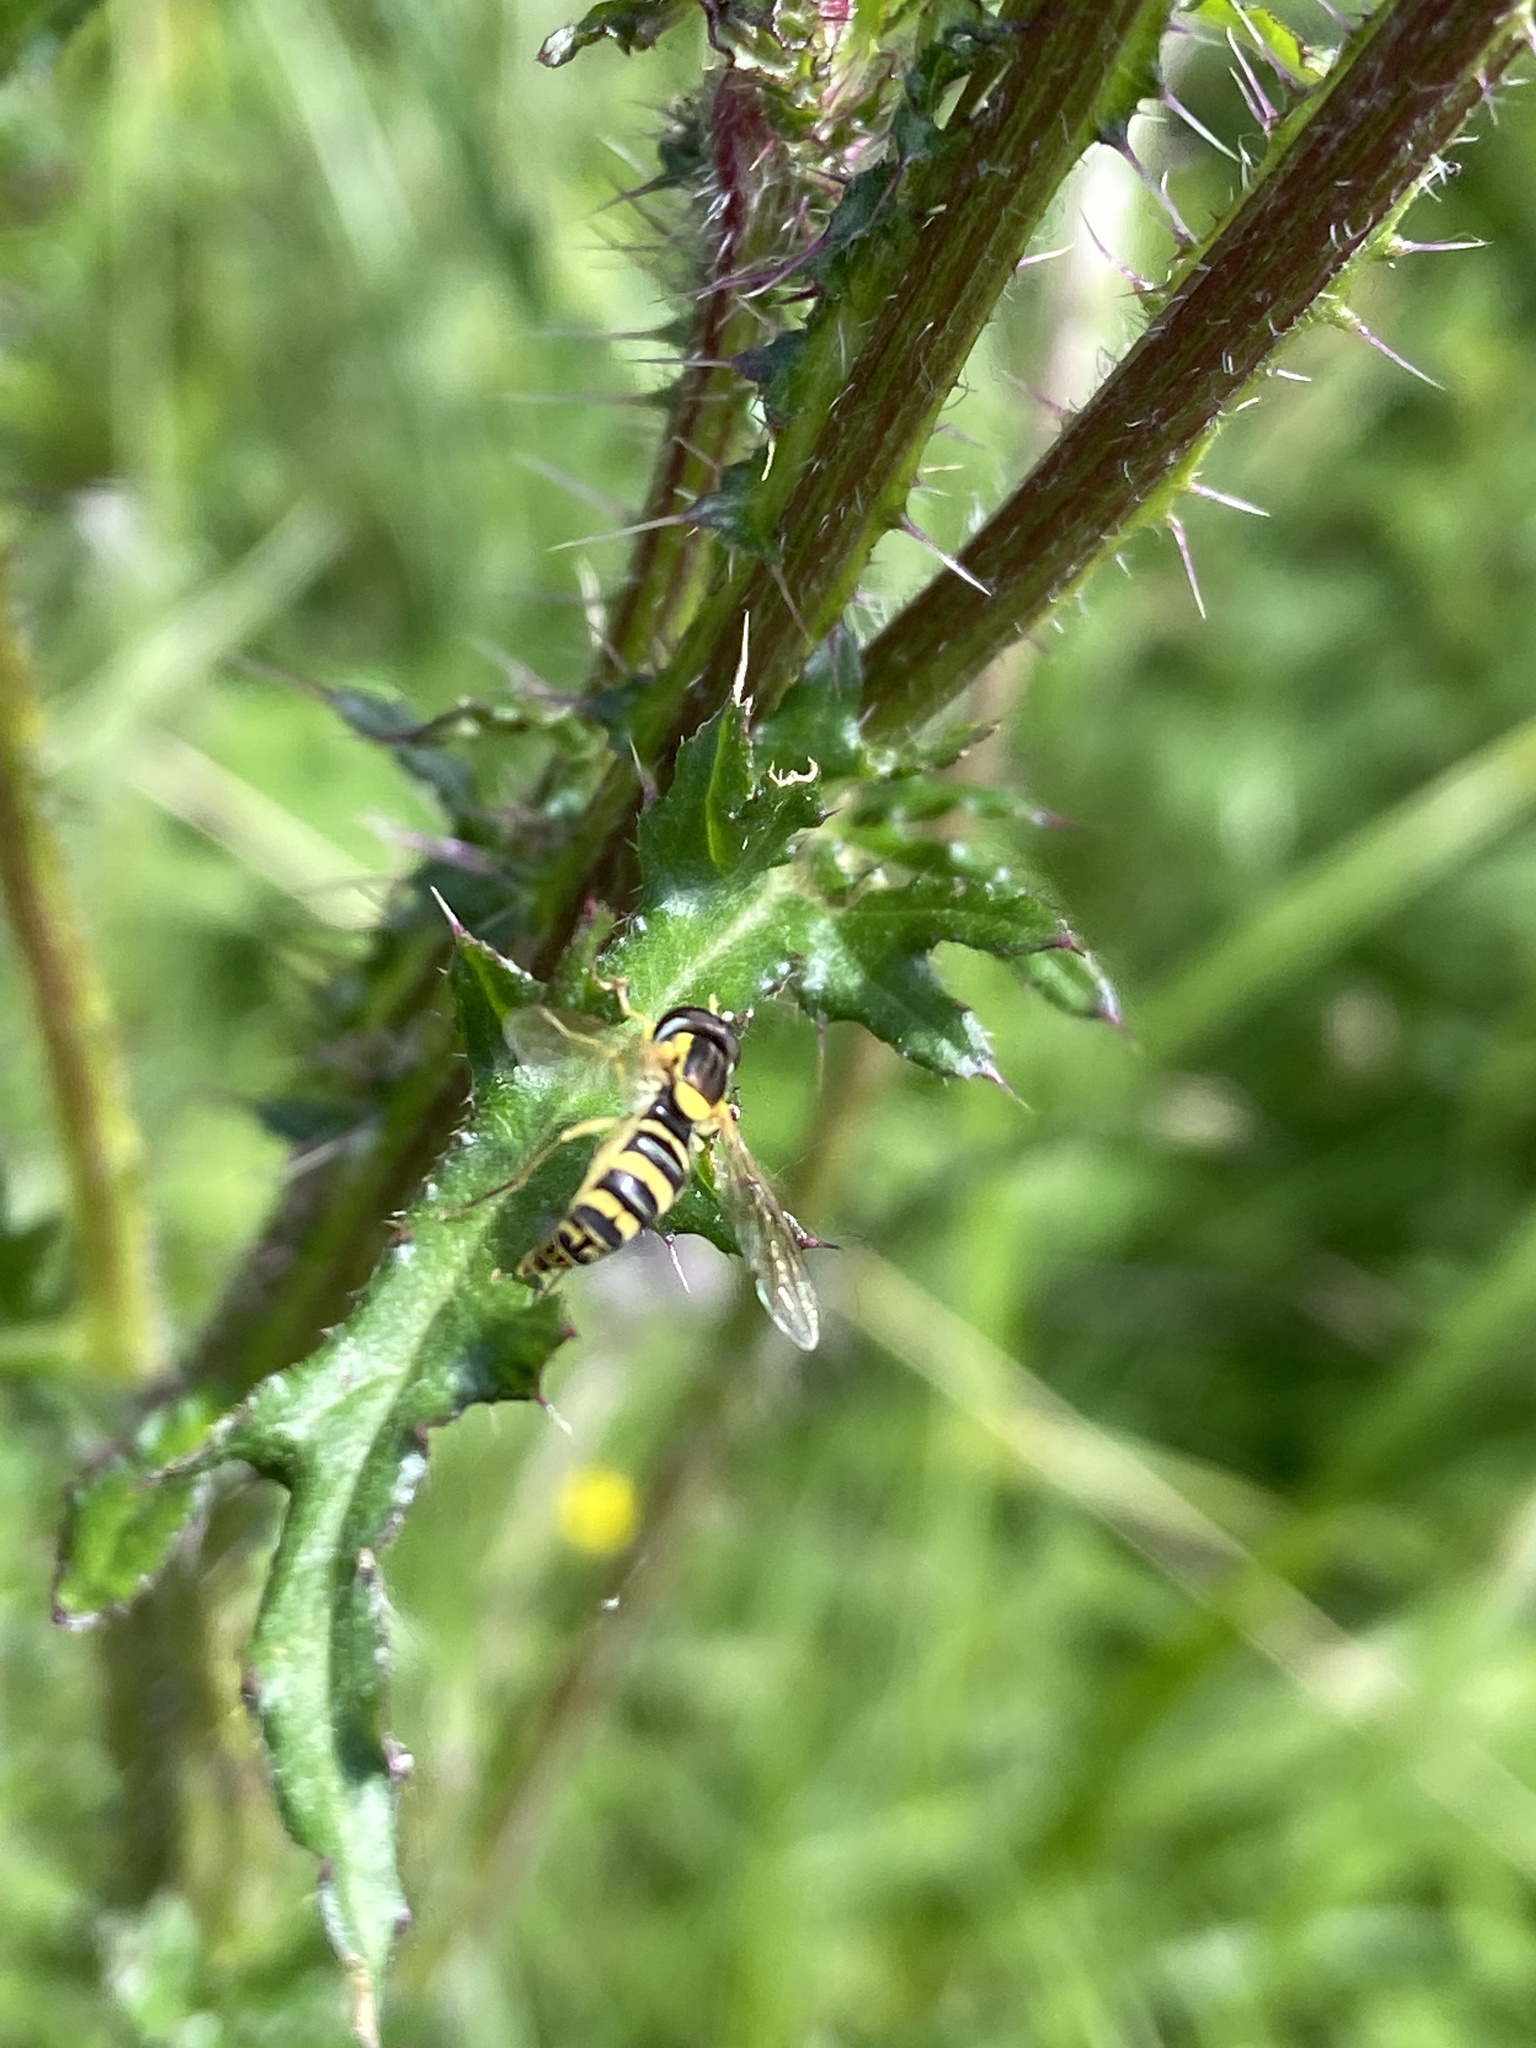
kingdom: Animalia
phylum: Arthropoda
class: Insecta
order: Diptera
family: Syrphidae
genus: Sphaerophoria
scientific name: Sphaerophoria
